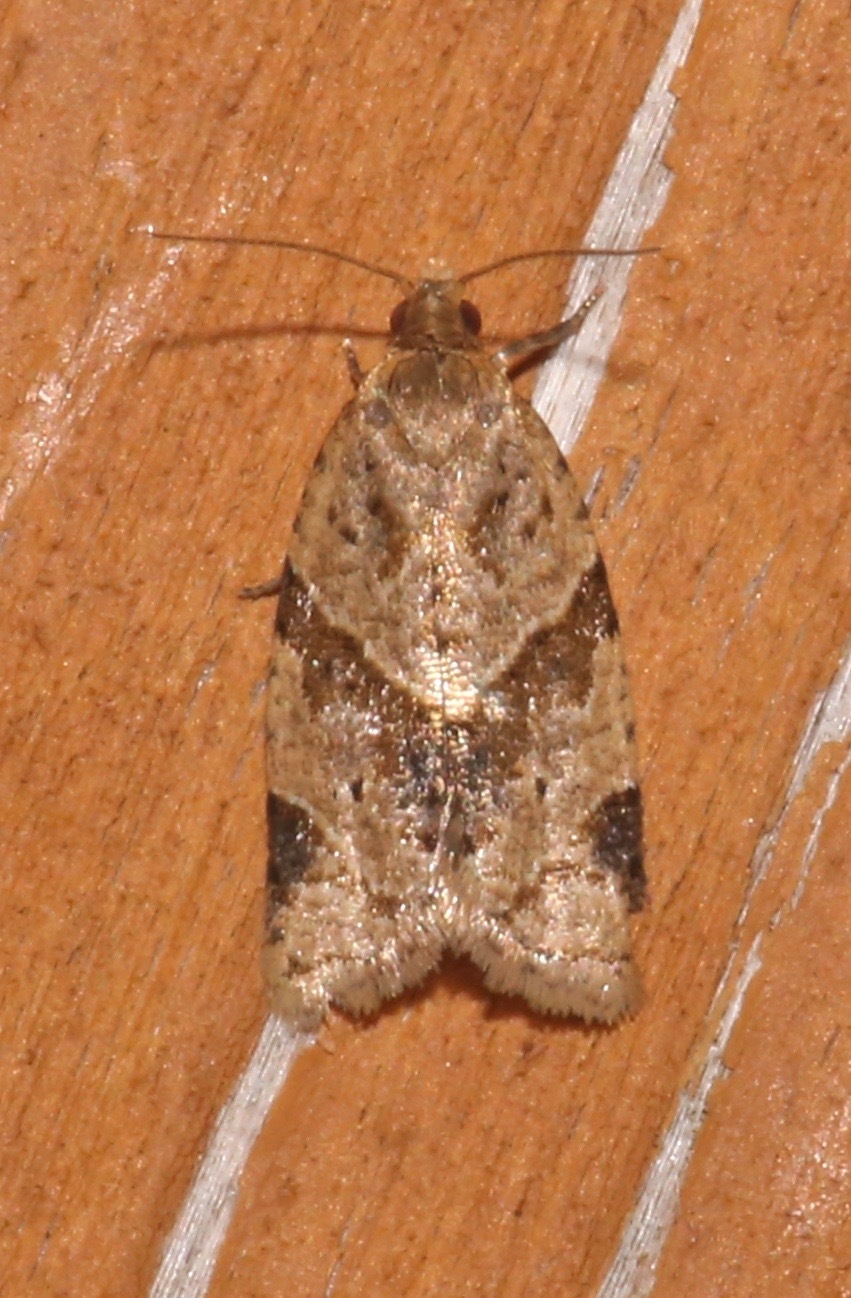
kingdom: Animalia
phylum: Arthropoda
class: Insecta
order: Lepidoptera
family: Tortricidae
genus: Clepsis
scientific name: Clepsis peritana
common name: Garden tortrix
